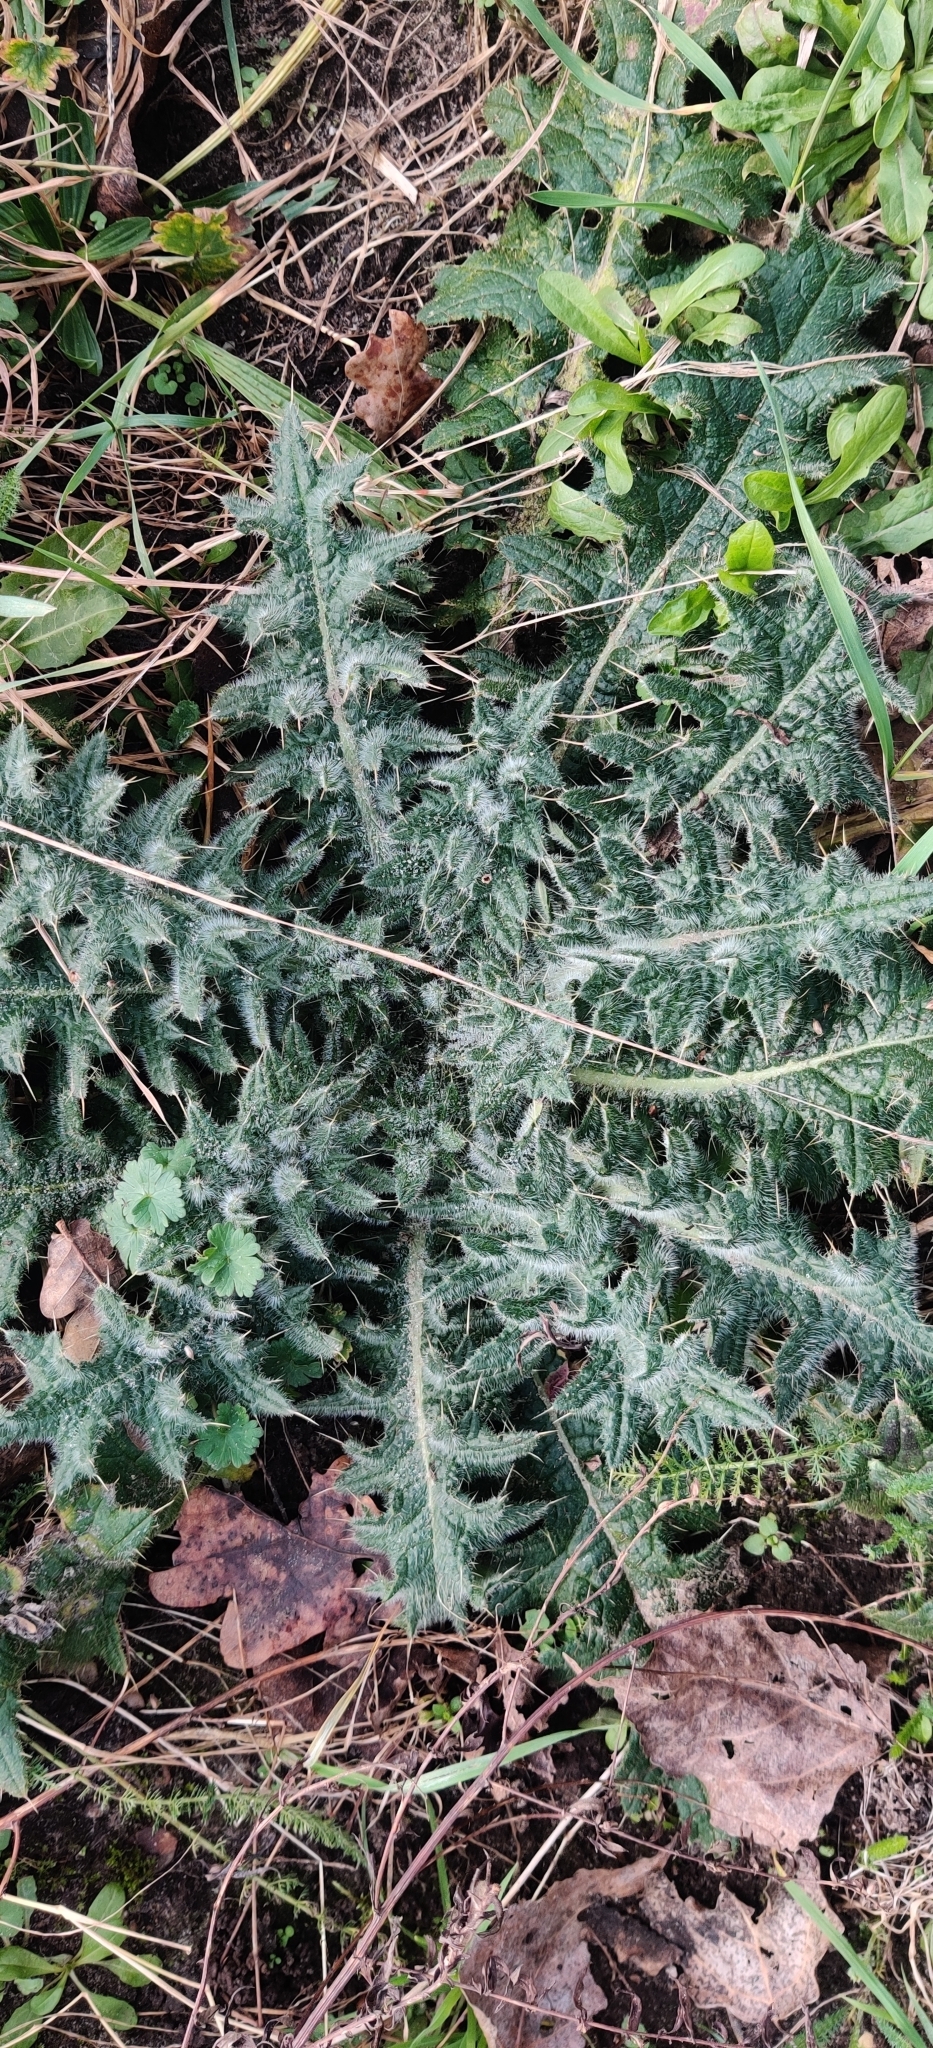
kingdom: Plantae
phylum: Tracheophyta
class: Magnoliopsida
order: Asterales
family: Asteraceae
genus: Cirsium
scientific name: Cirsium vulgare
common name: Bull thistle
